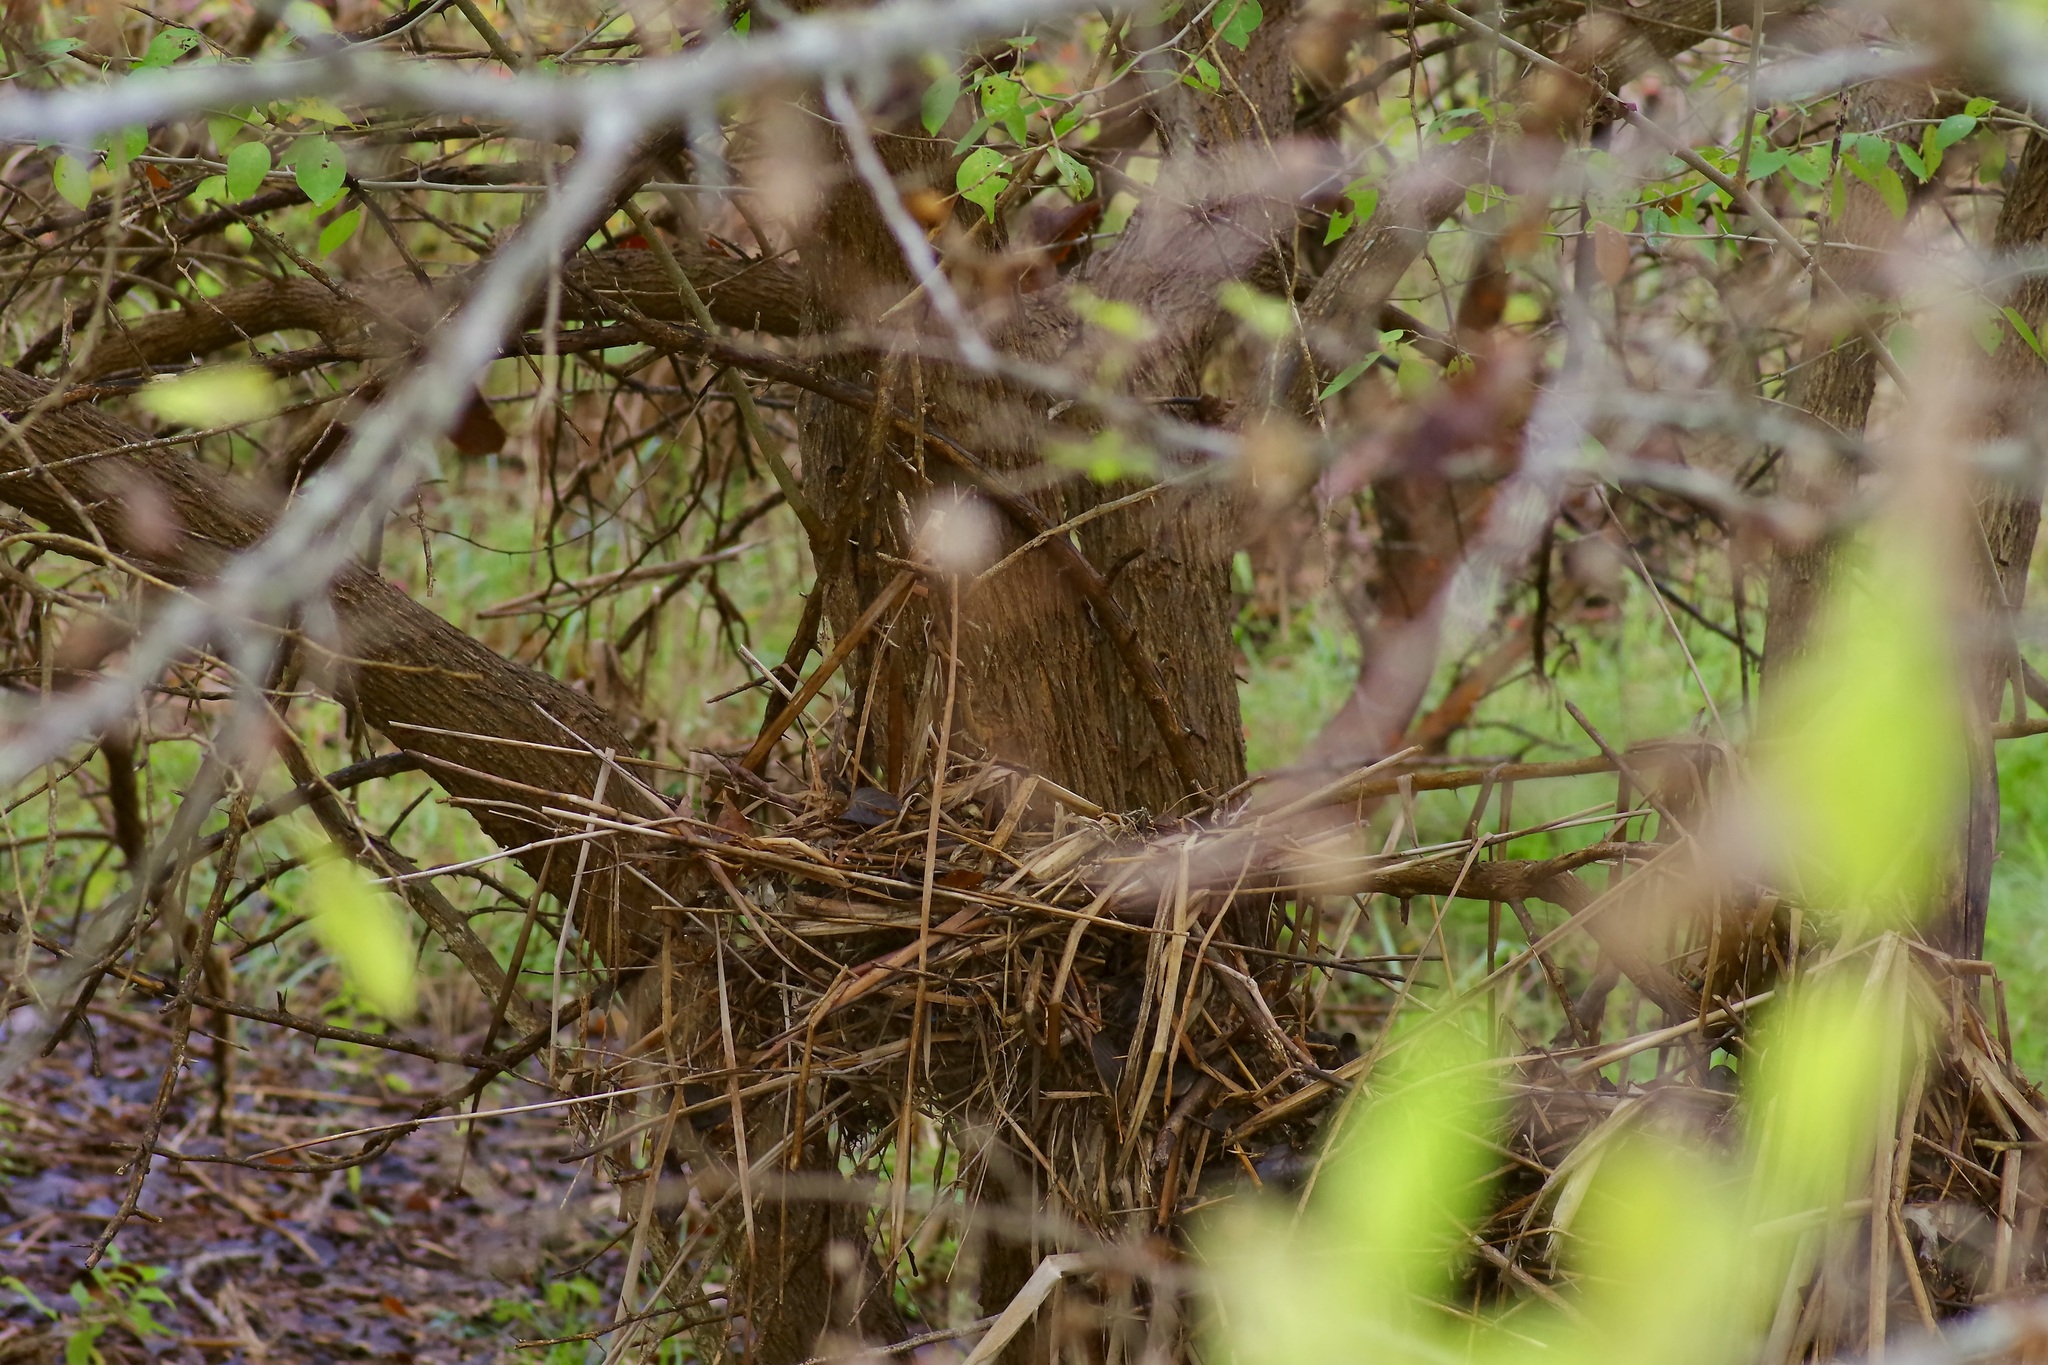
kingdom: Plantae
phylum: Tracheophyta
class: Magnoliopsida
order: Rosales
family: Moraceae
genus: Maclura
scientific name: Maclura pomifera
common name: Osage-orange
